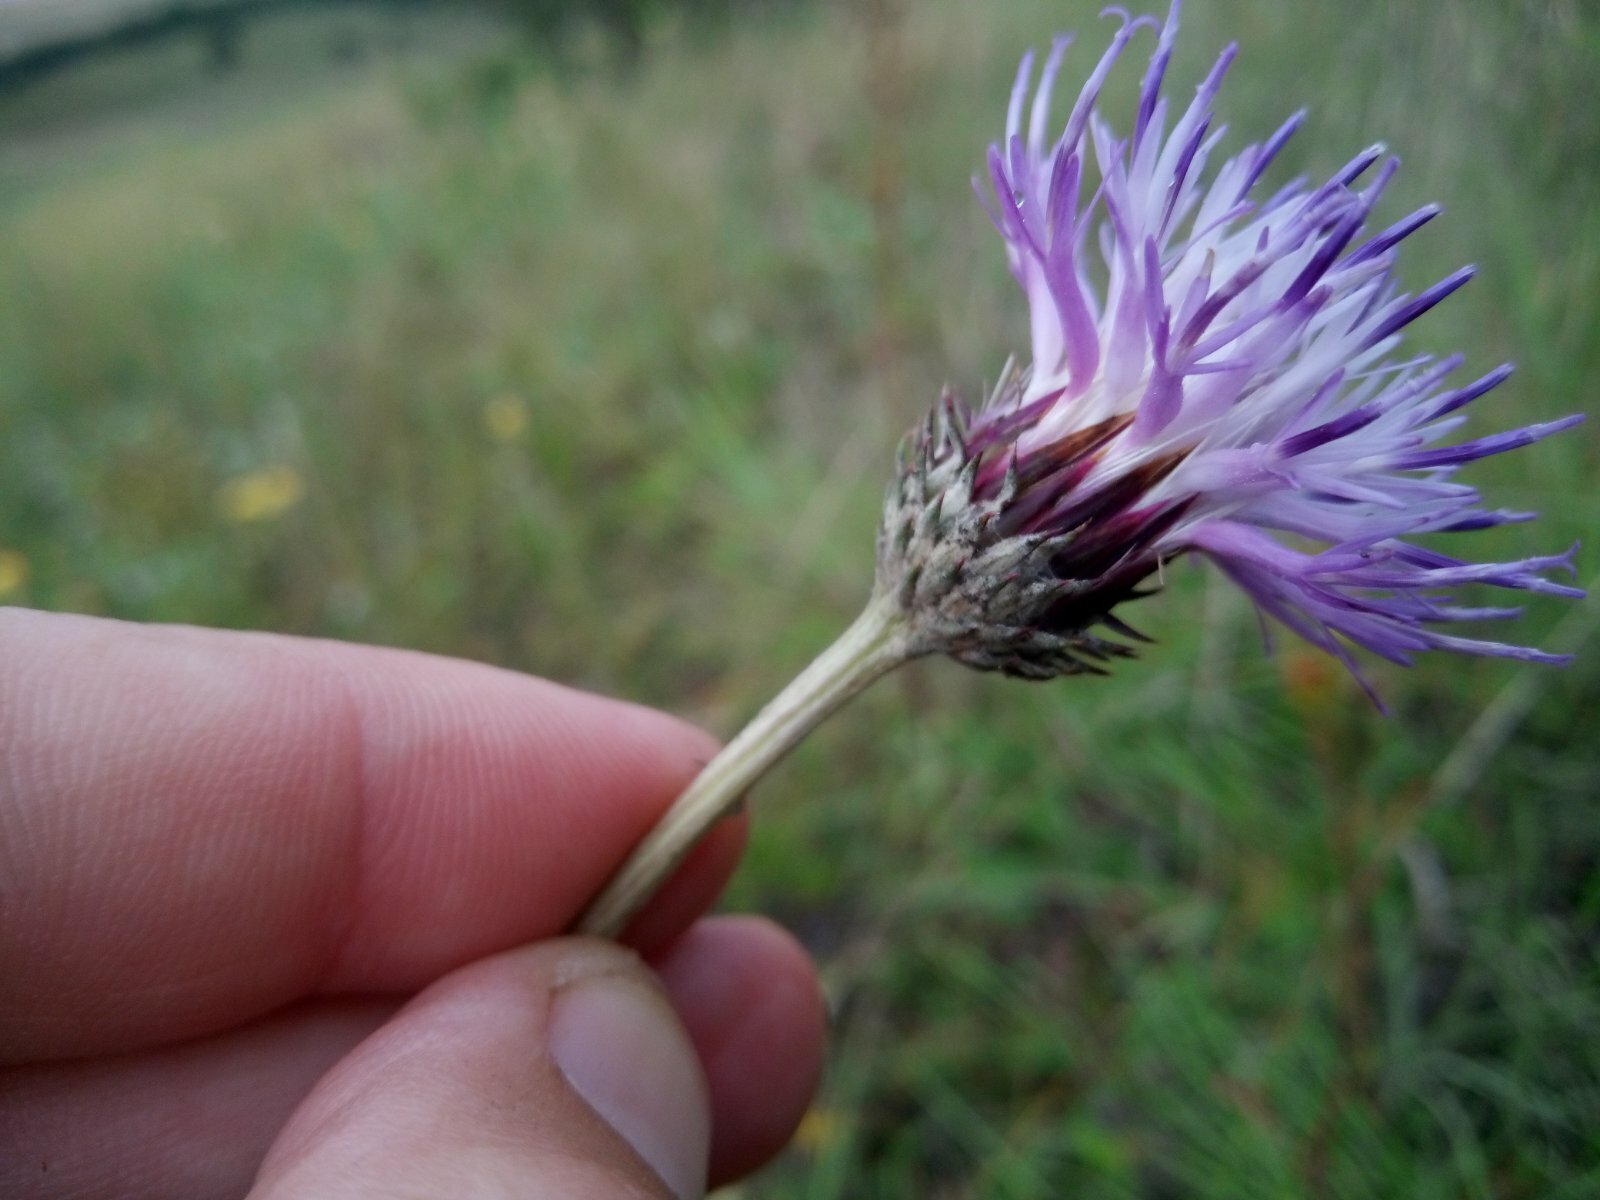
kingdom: Plantae
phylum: Tracheophyta
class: Magnoliopsida
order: Asterales
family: Asteraceae
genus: Jurinea
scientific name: Jurinea salicifolia
